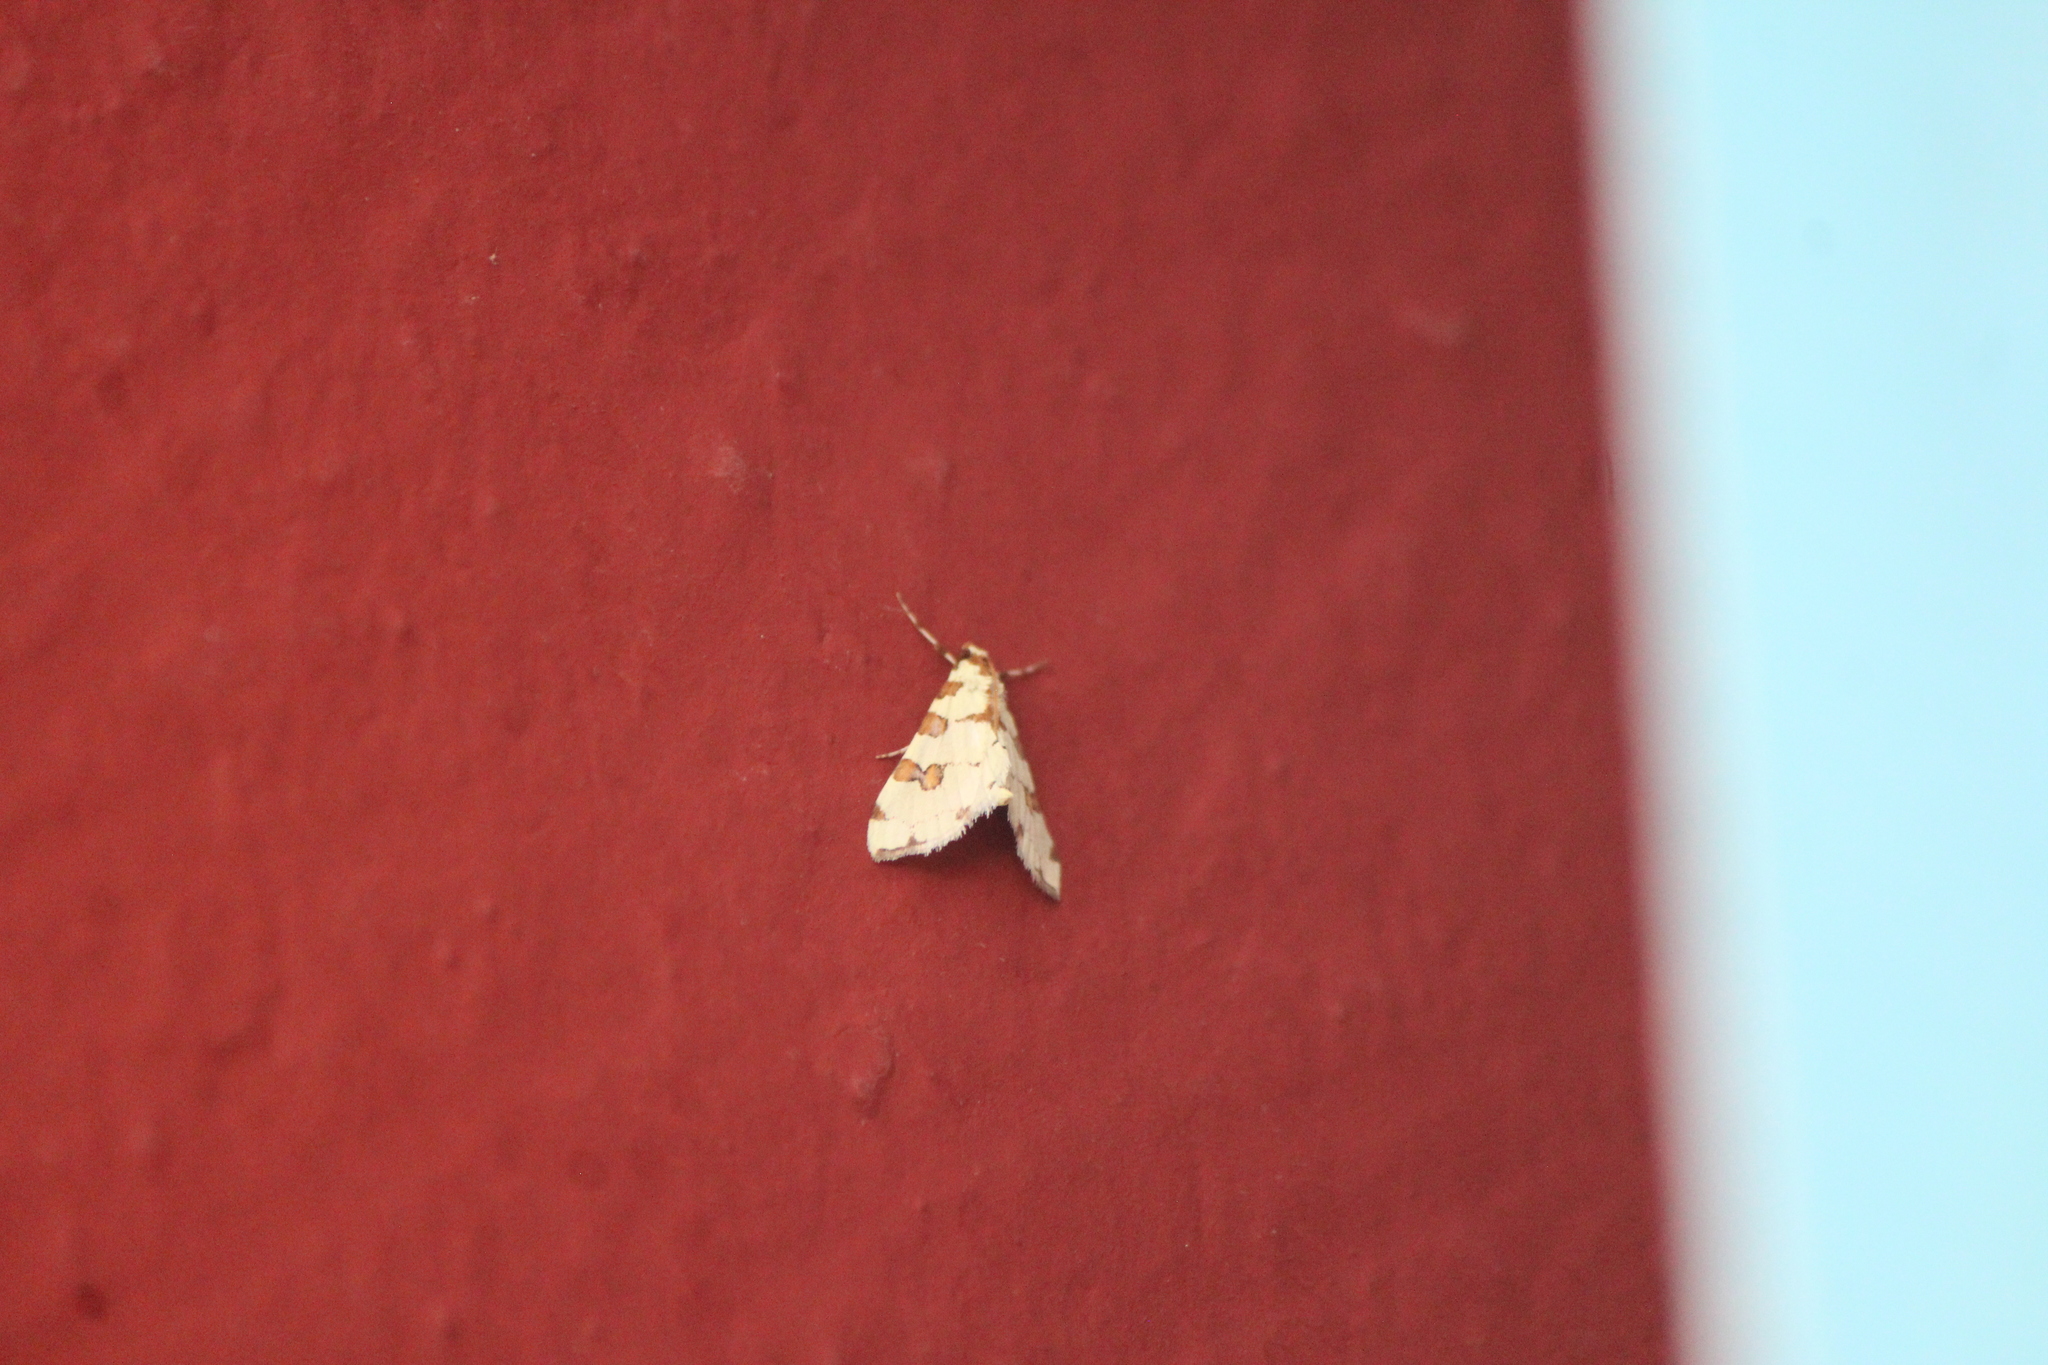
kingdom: Animalia
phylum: Arthropoda
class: Insecta
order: Lepidoptera
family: Crambidae
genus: Conchylodes
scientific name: Conchylodes
